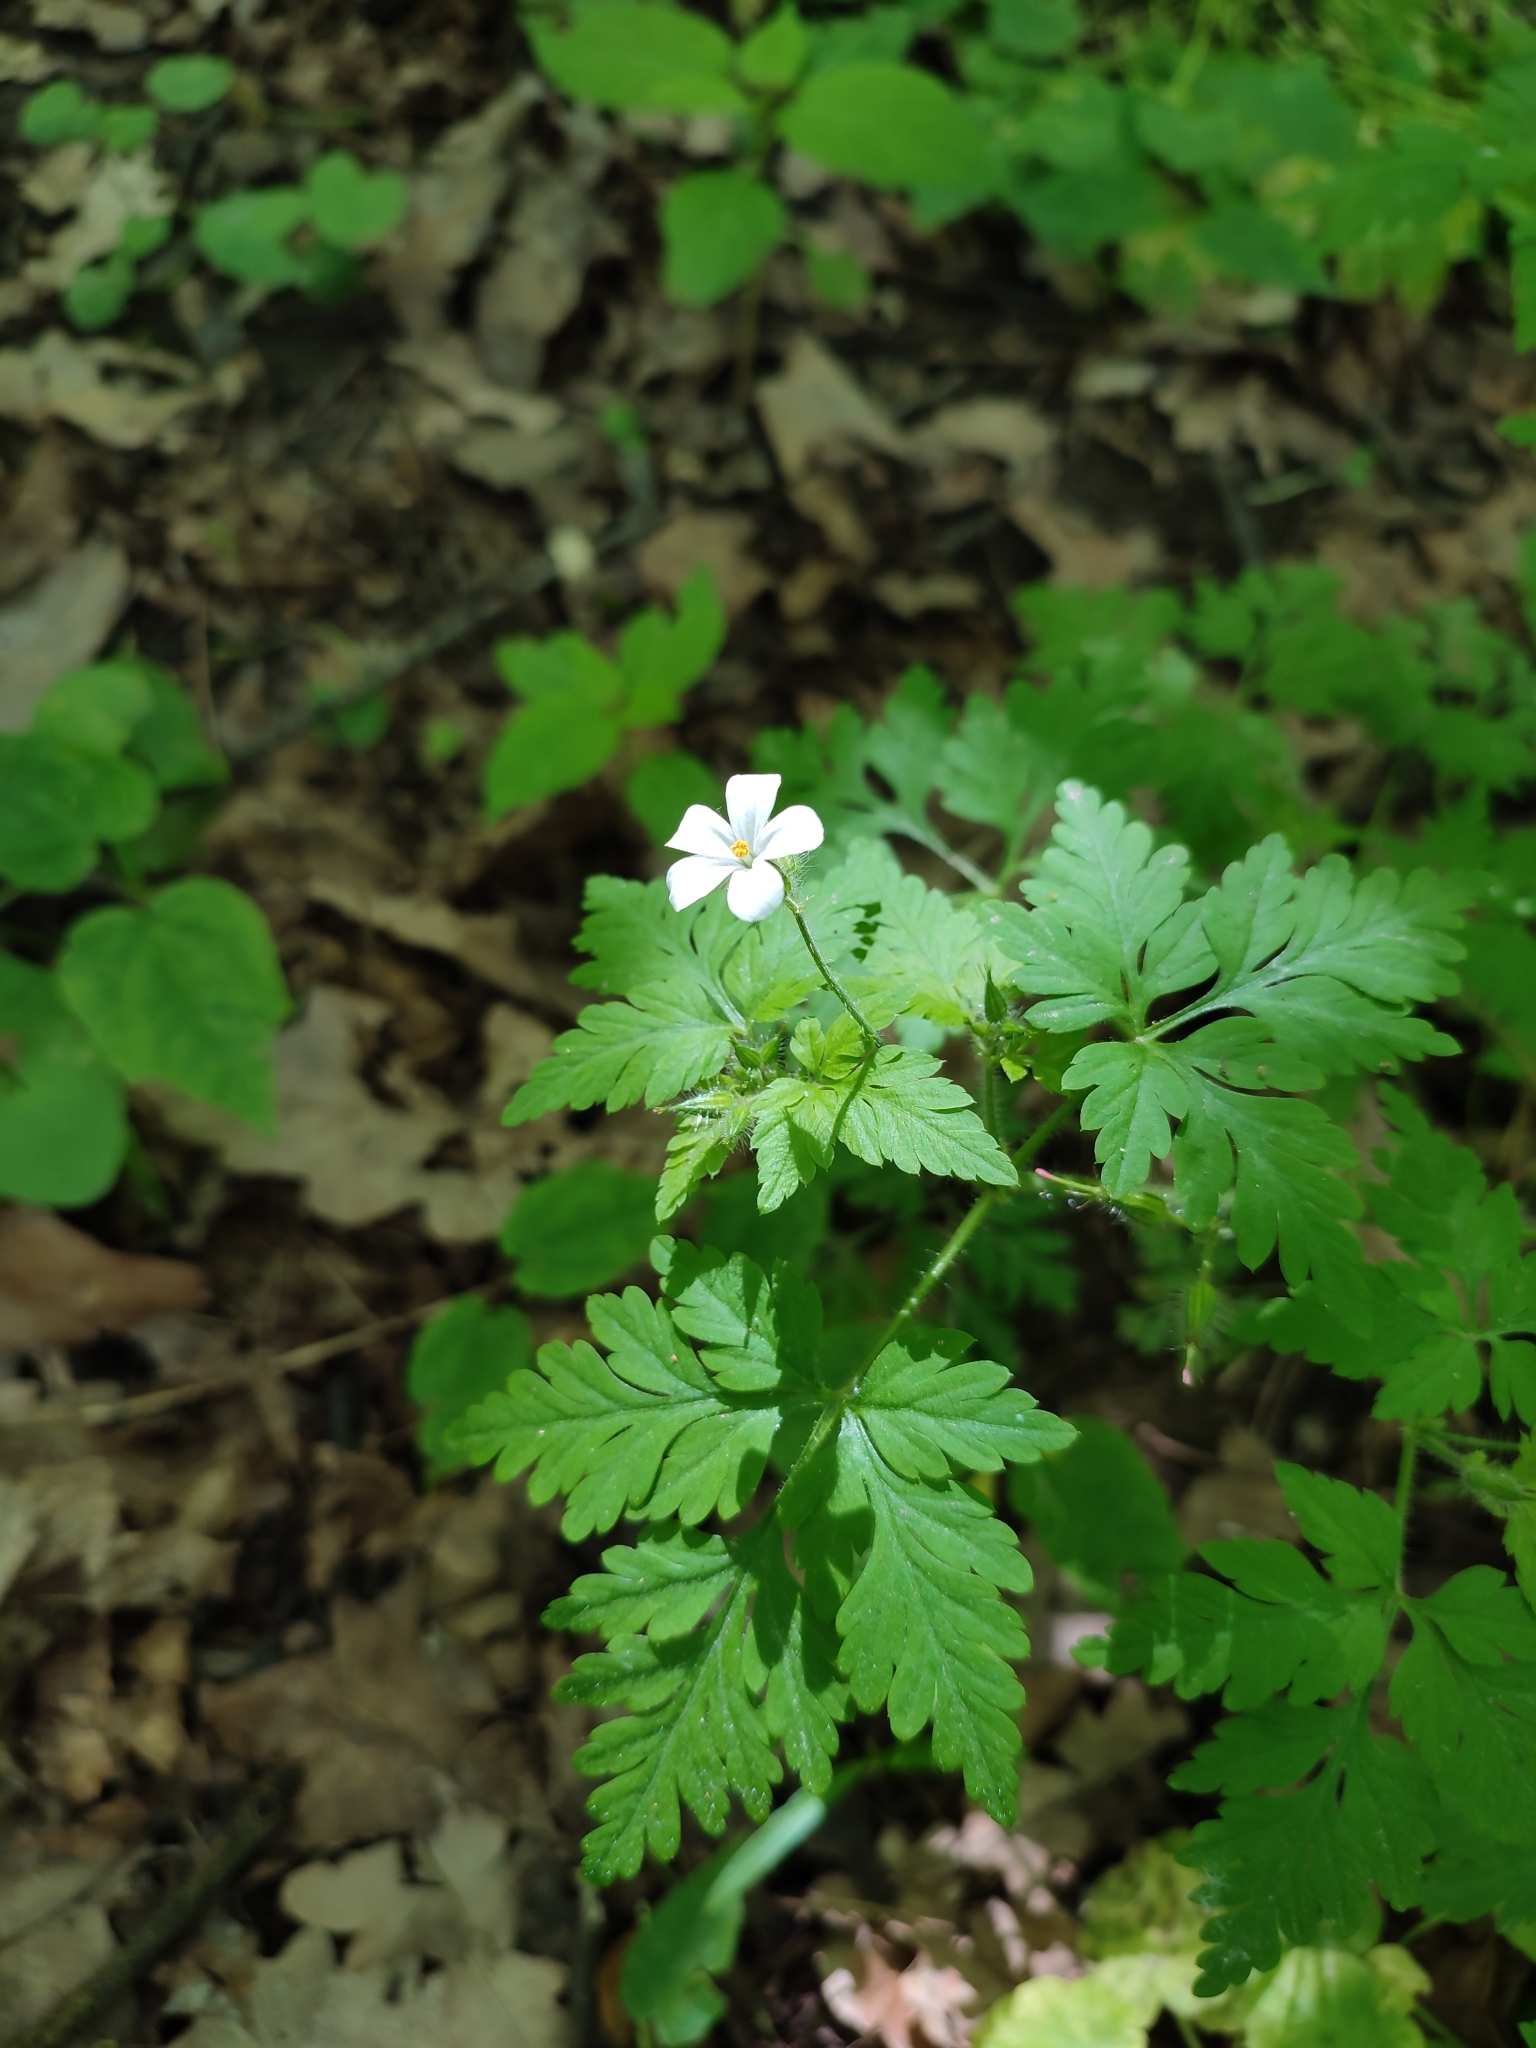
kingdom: Plantae
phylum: Tracheophyta
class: Magnoliopsida
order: Geraniales
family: Geraniaceae
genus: Geranium
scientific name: Geranium robertianum
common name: Herb-robert
